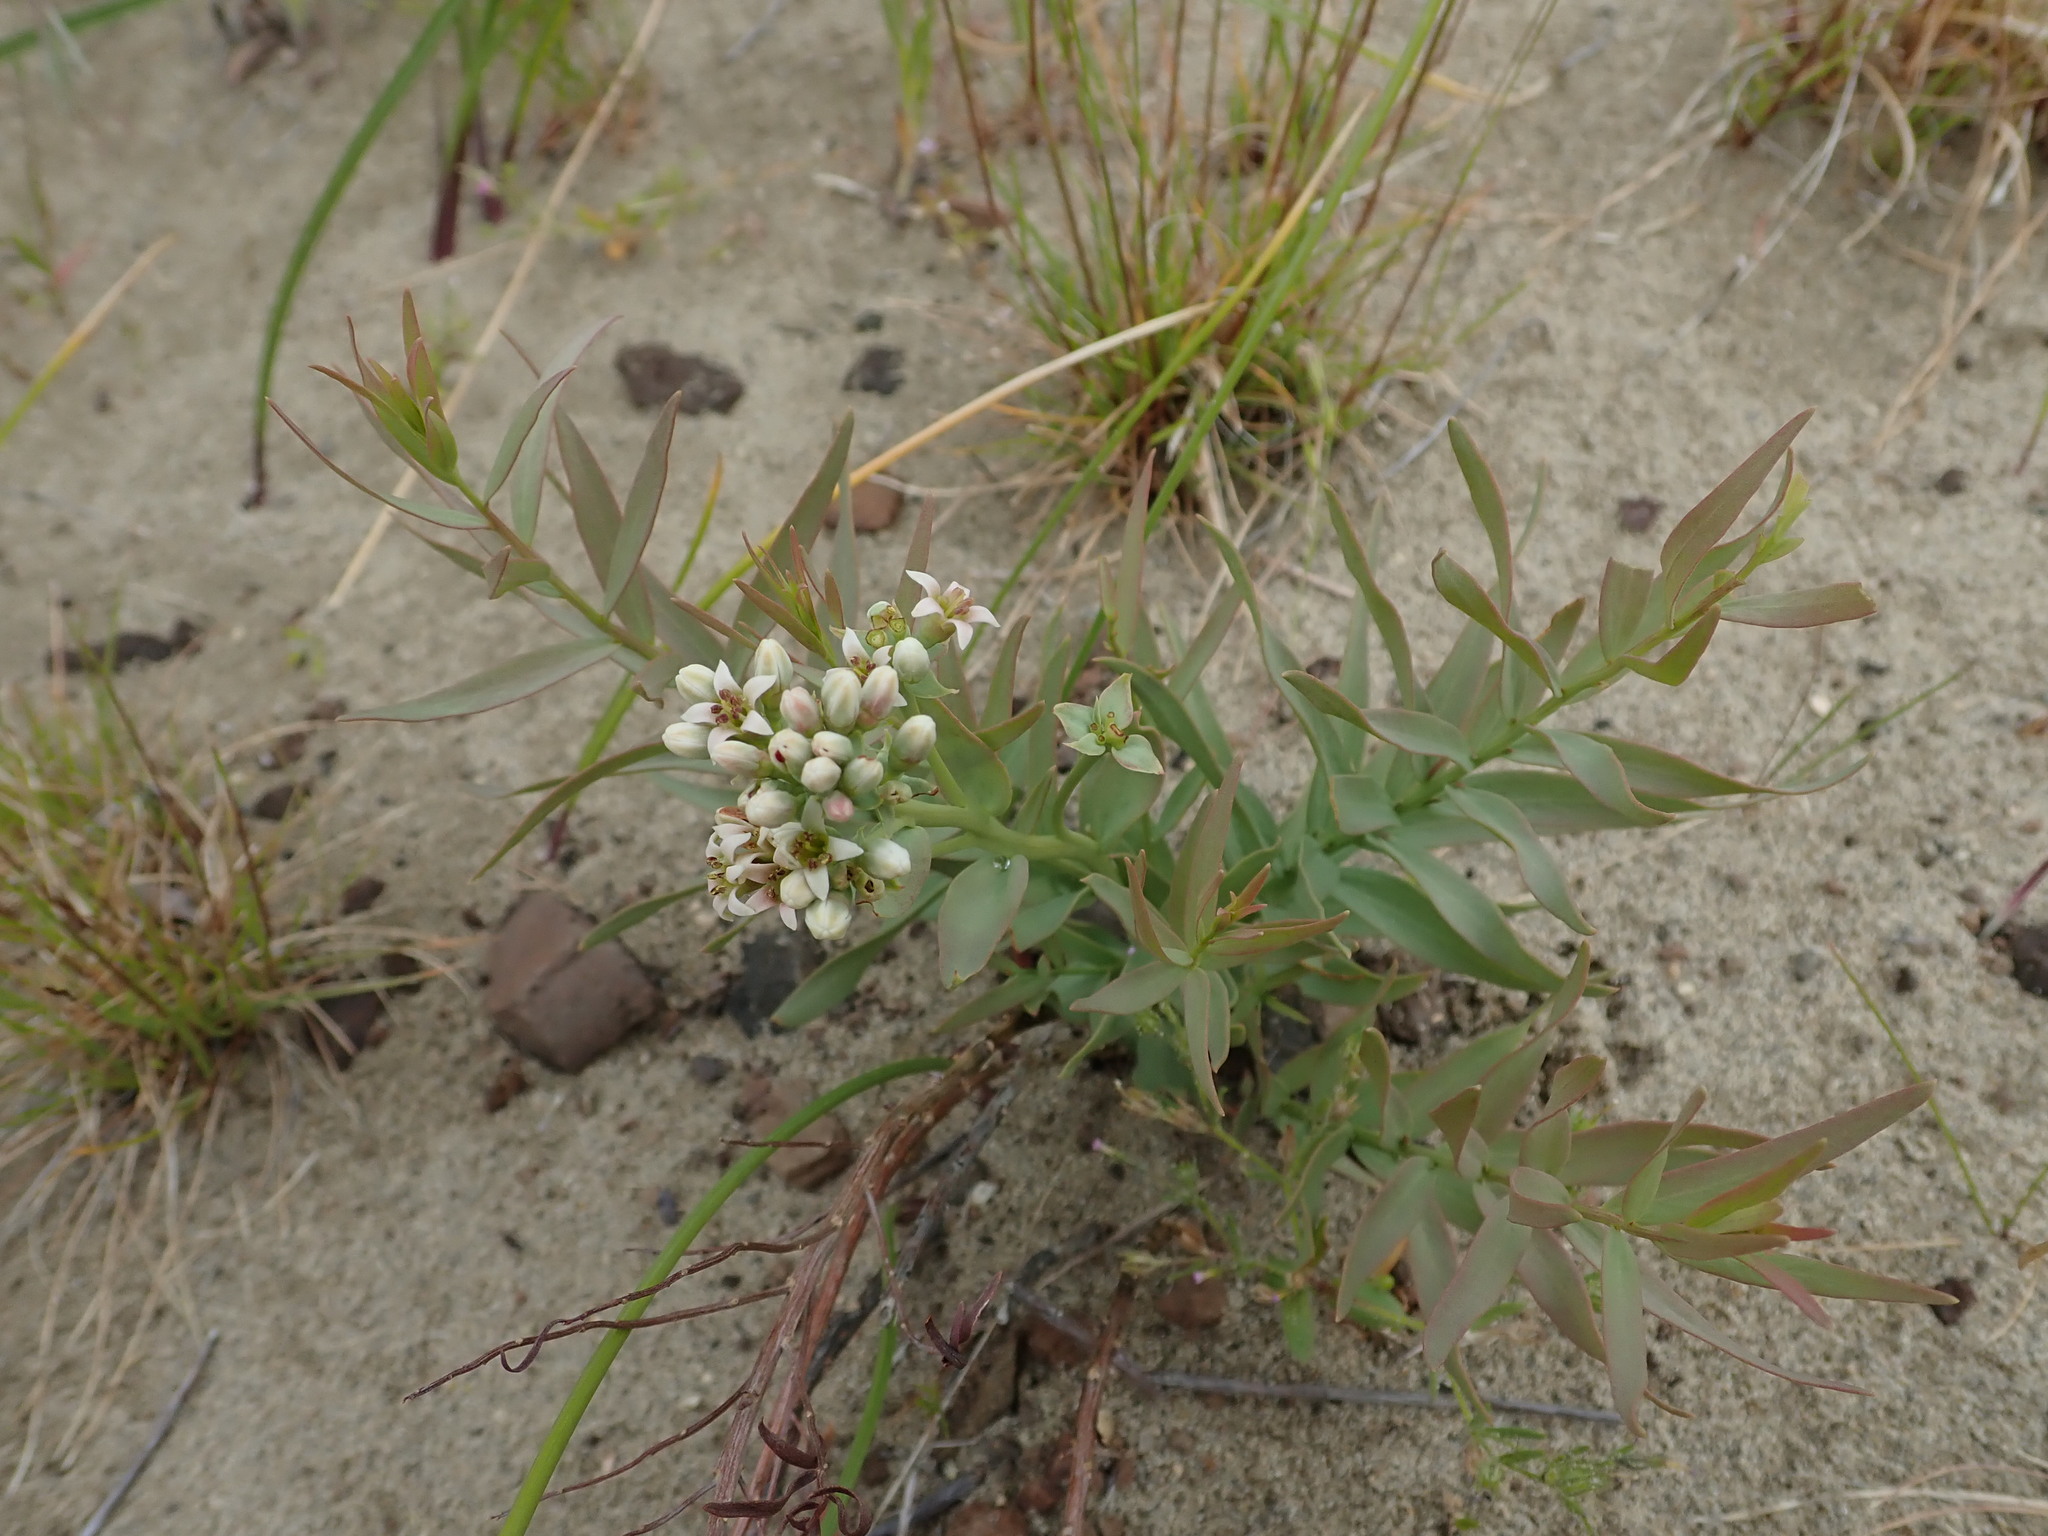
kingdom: Plantae
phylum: Tracheophyta
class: Magnoliopsida
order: Santalales
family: Comandraceae
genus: Comandra
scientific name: Comandra umbellata
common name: Bastard toadflax
